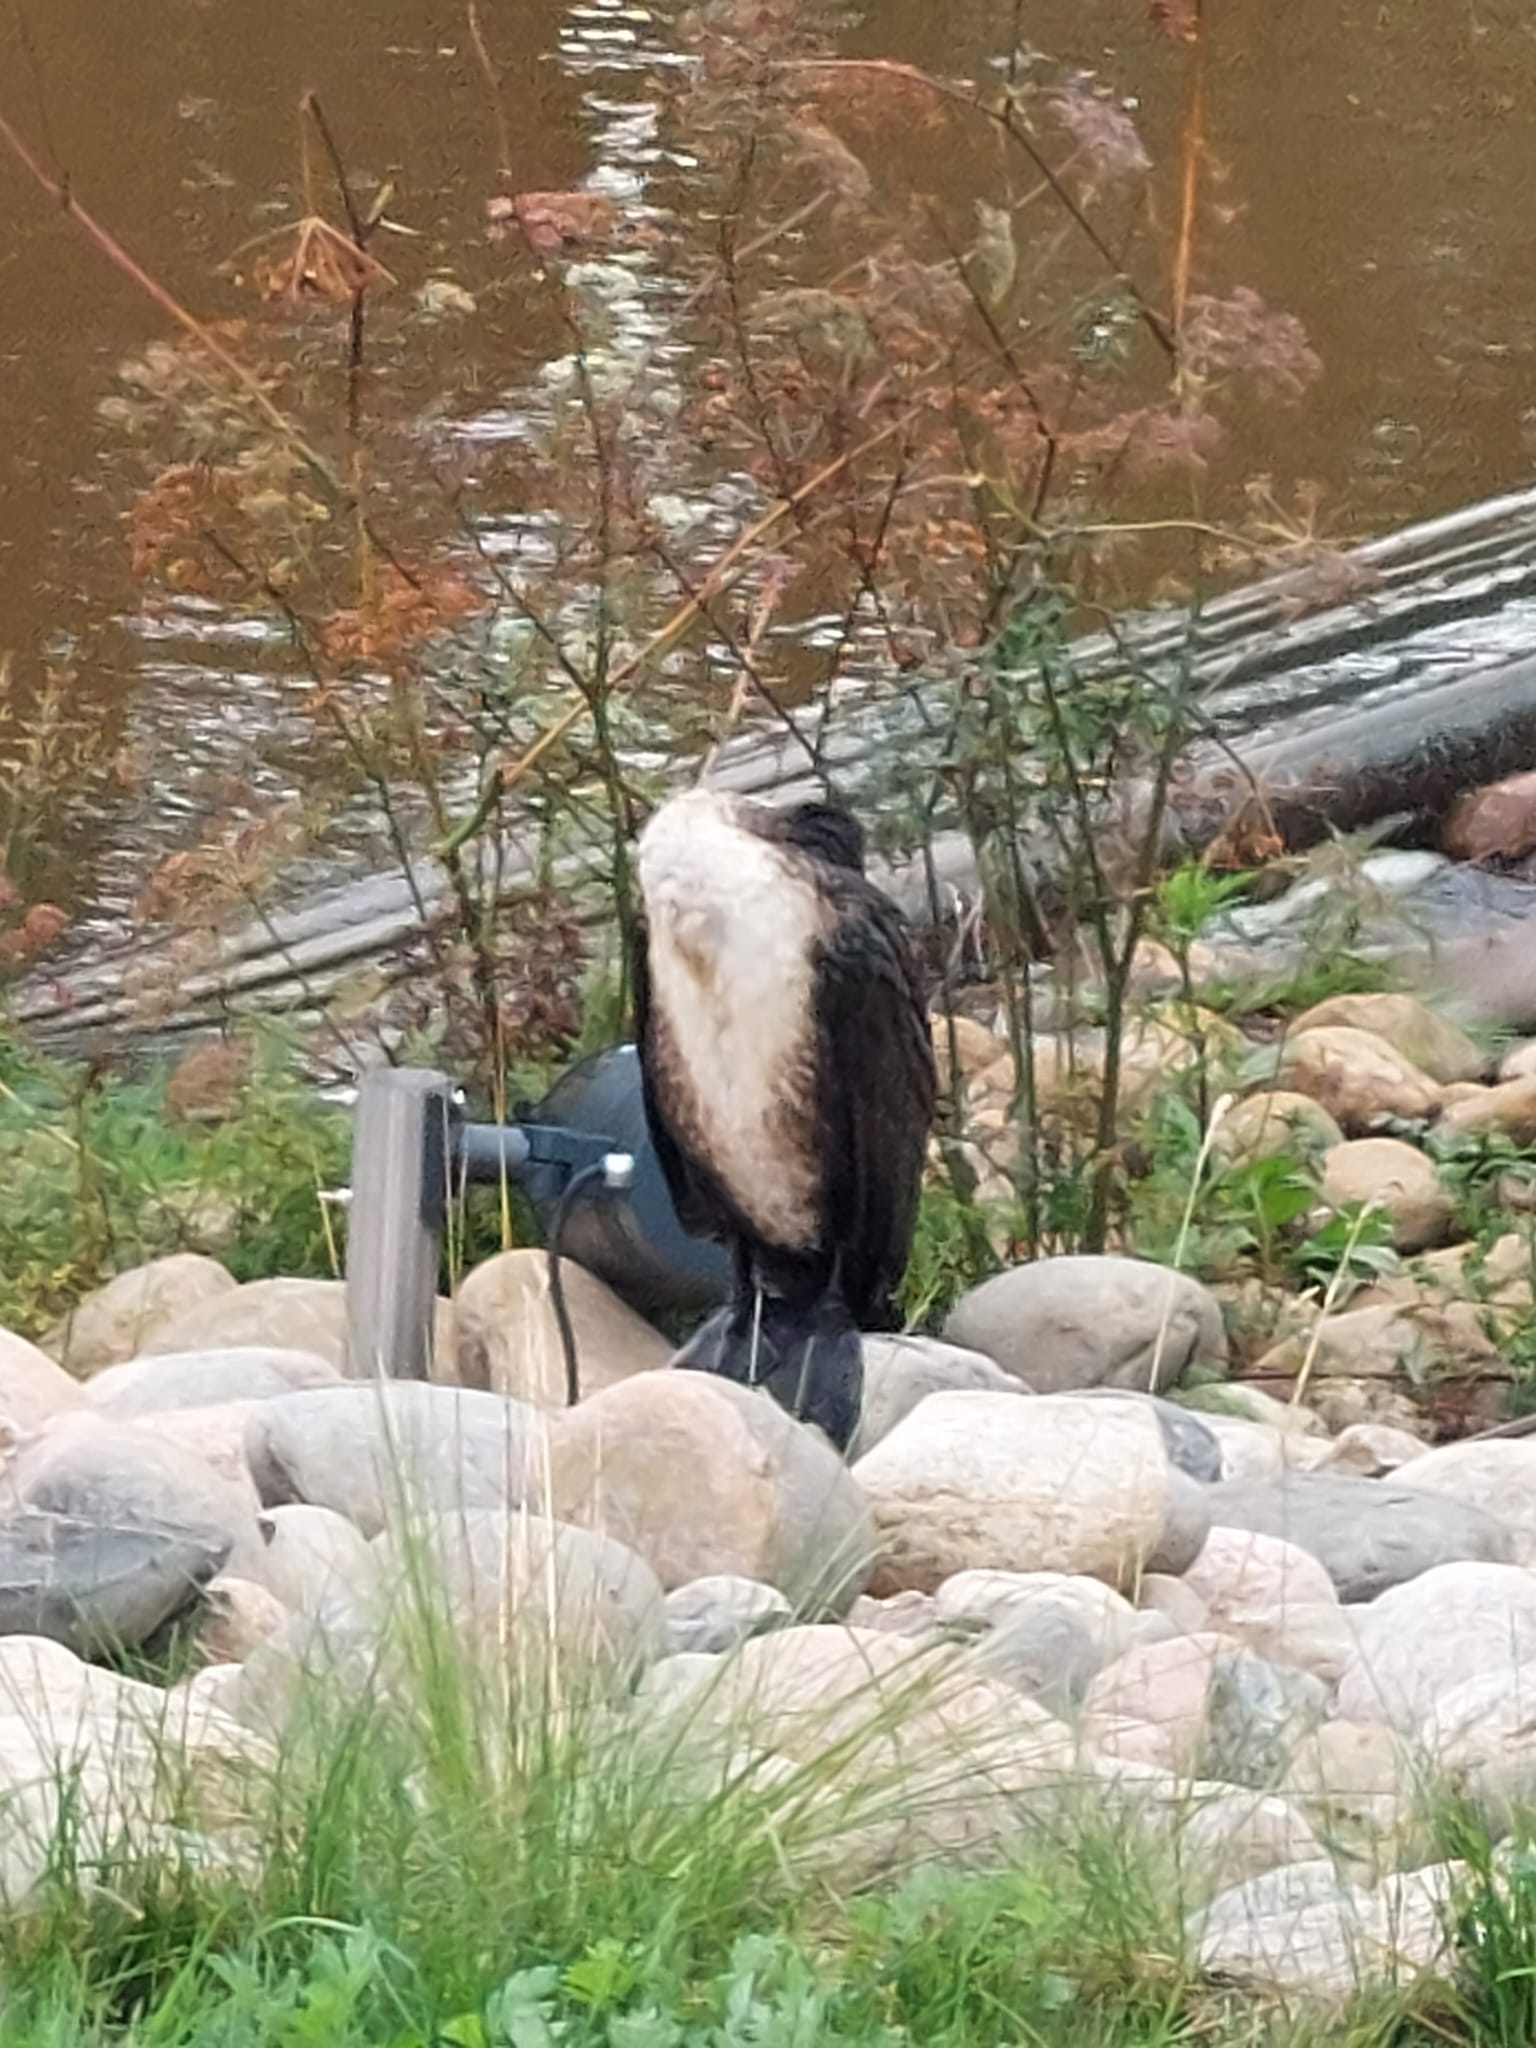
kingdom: Animalia
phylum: Chordata
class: Aves
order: Suliformes
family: Phalacrocoracidae
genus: Phalacrocorax
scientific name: Phalacrocorax carbo
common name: Great cormorant
